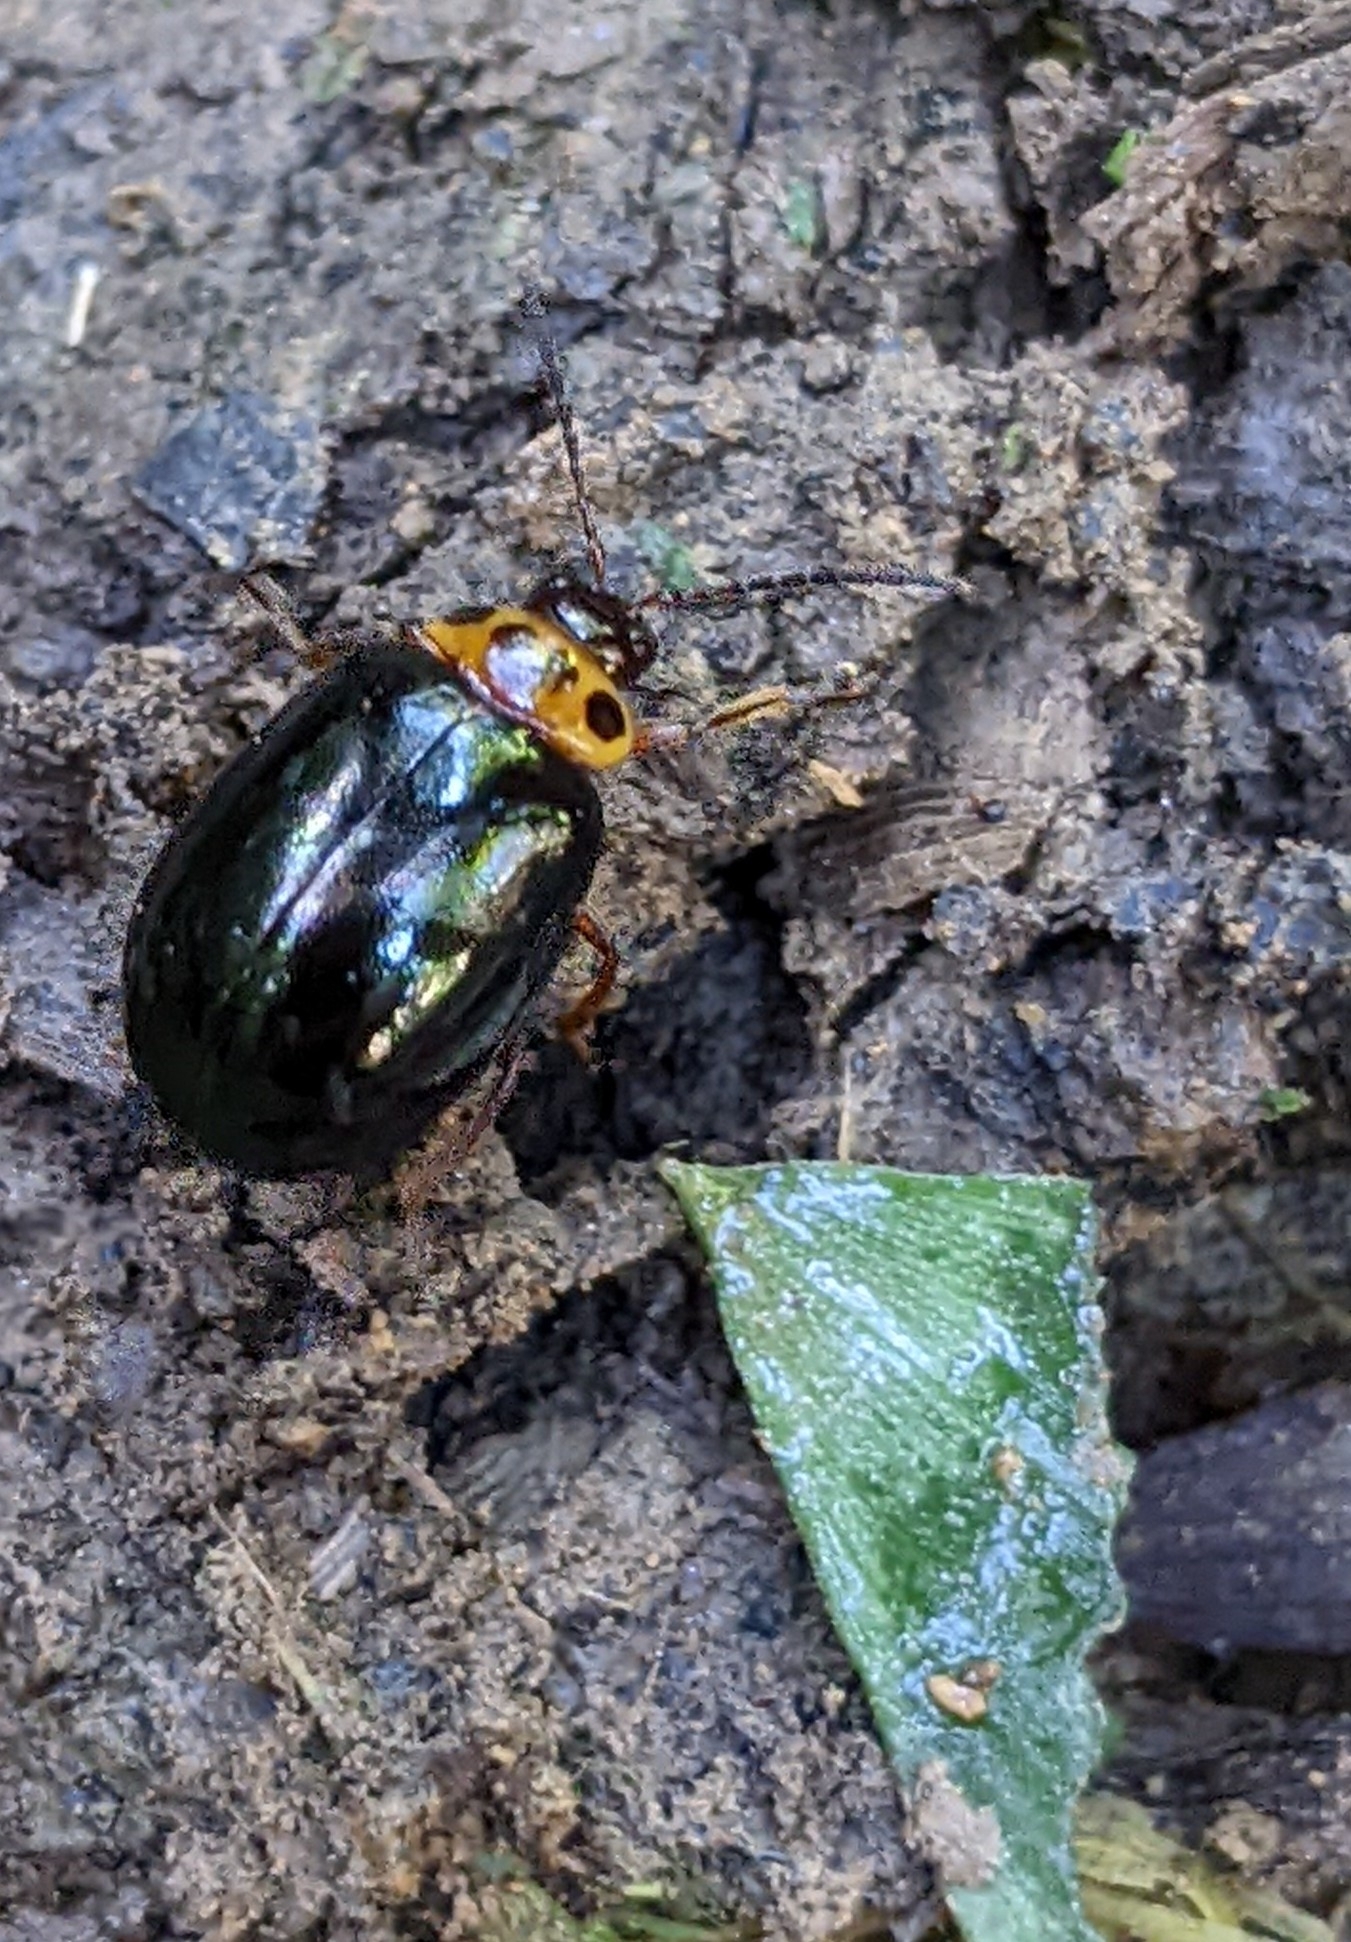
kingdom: Animalia
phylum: Arthropoda
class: Insecta
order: Coleoptera
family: Chrysomelidae
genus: Morphosphaera
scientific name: Morphosphaera chrysomeloides
